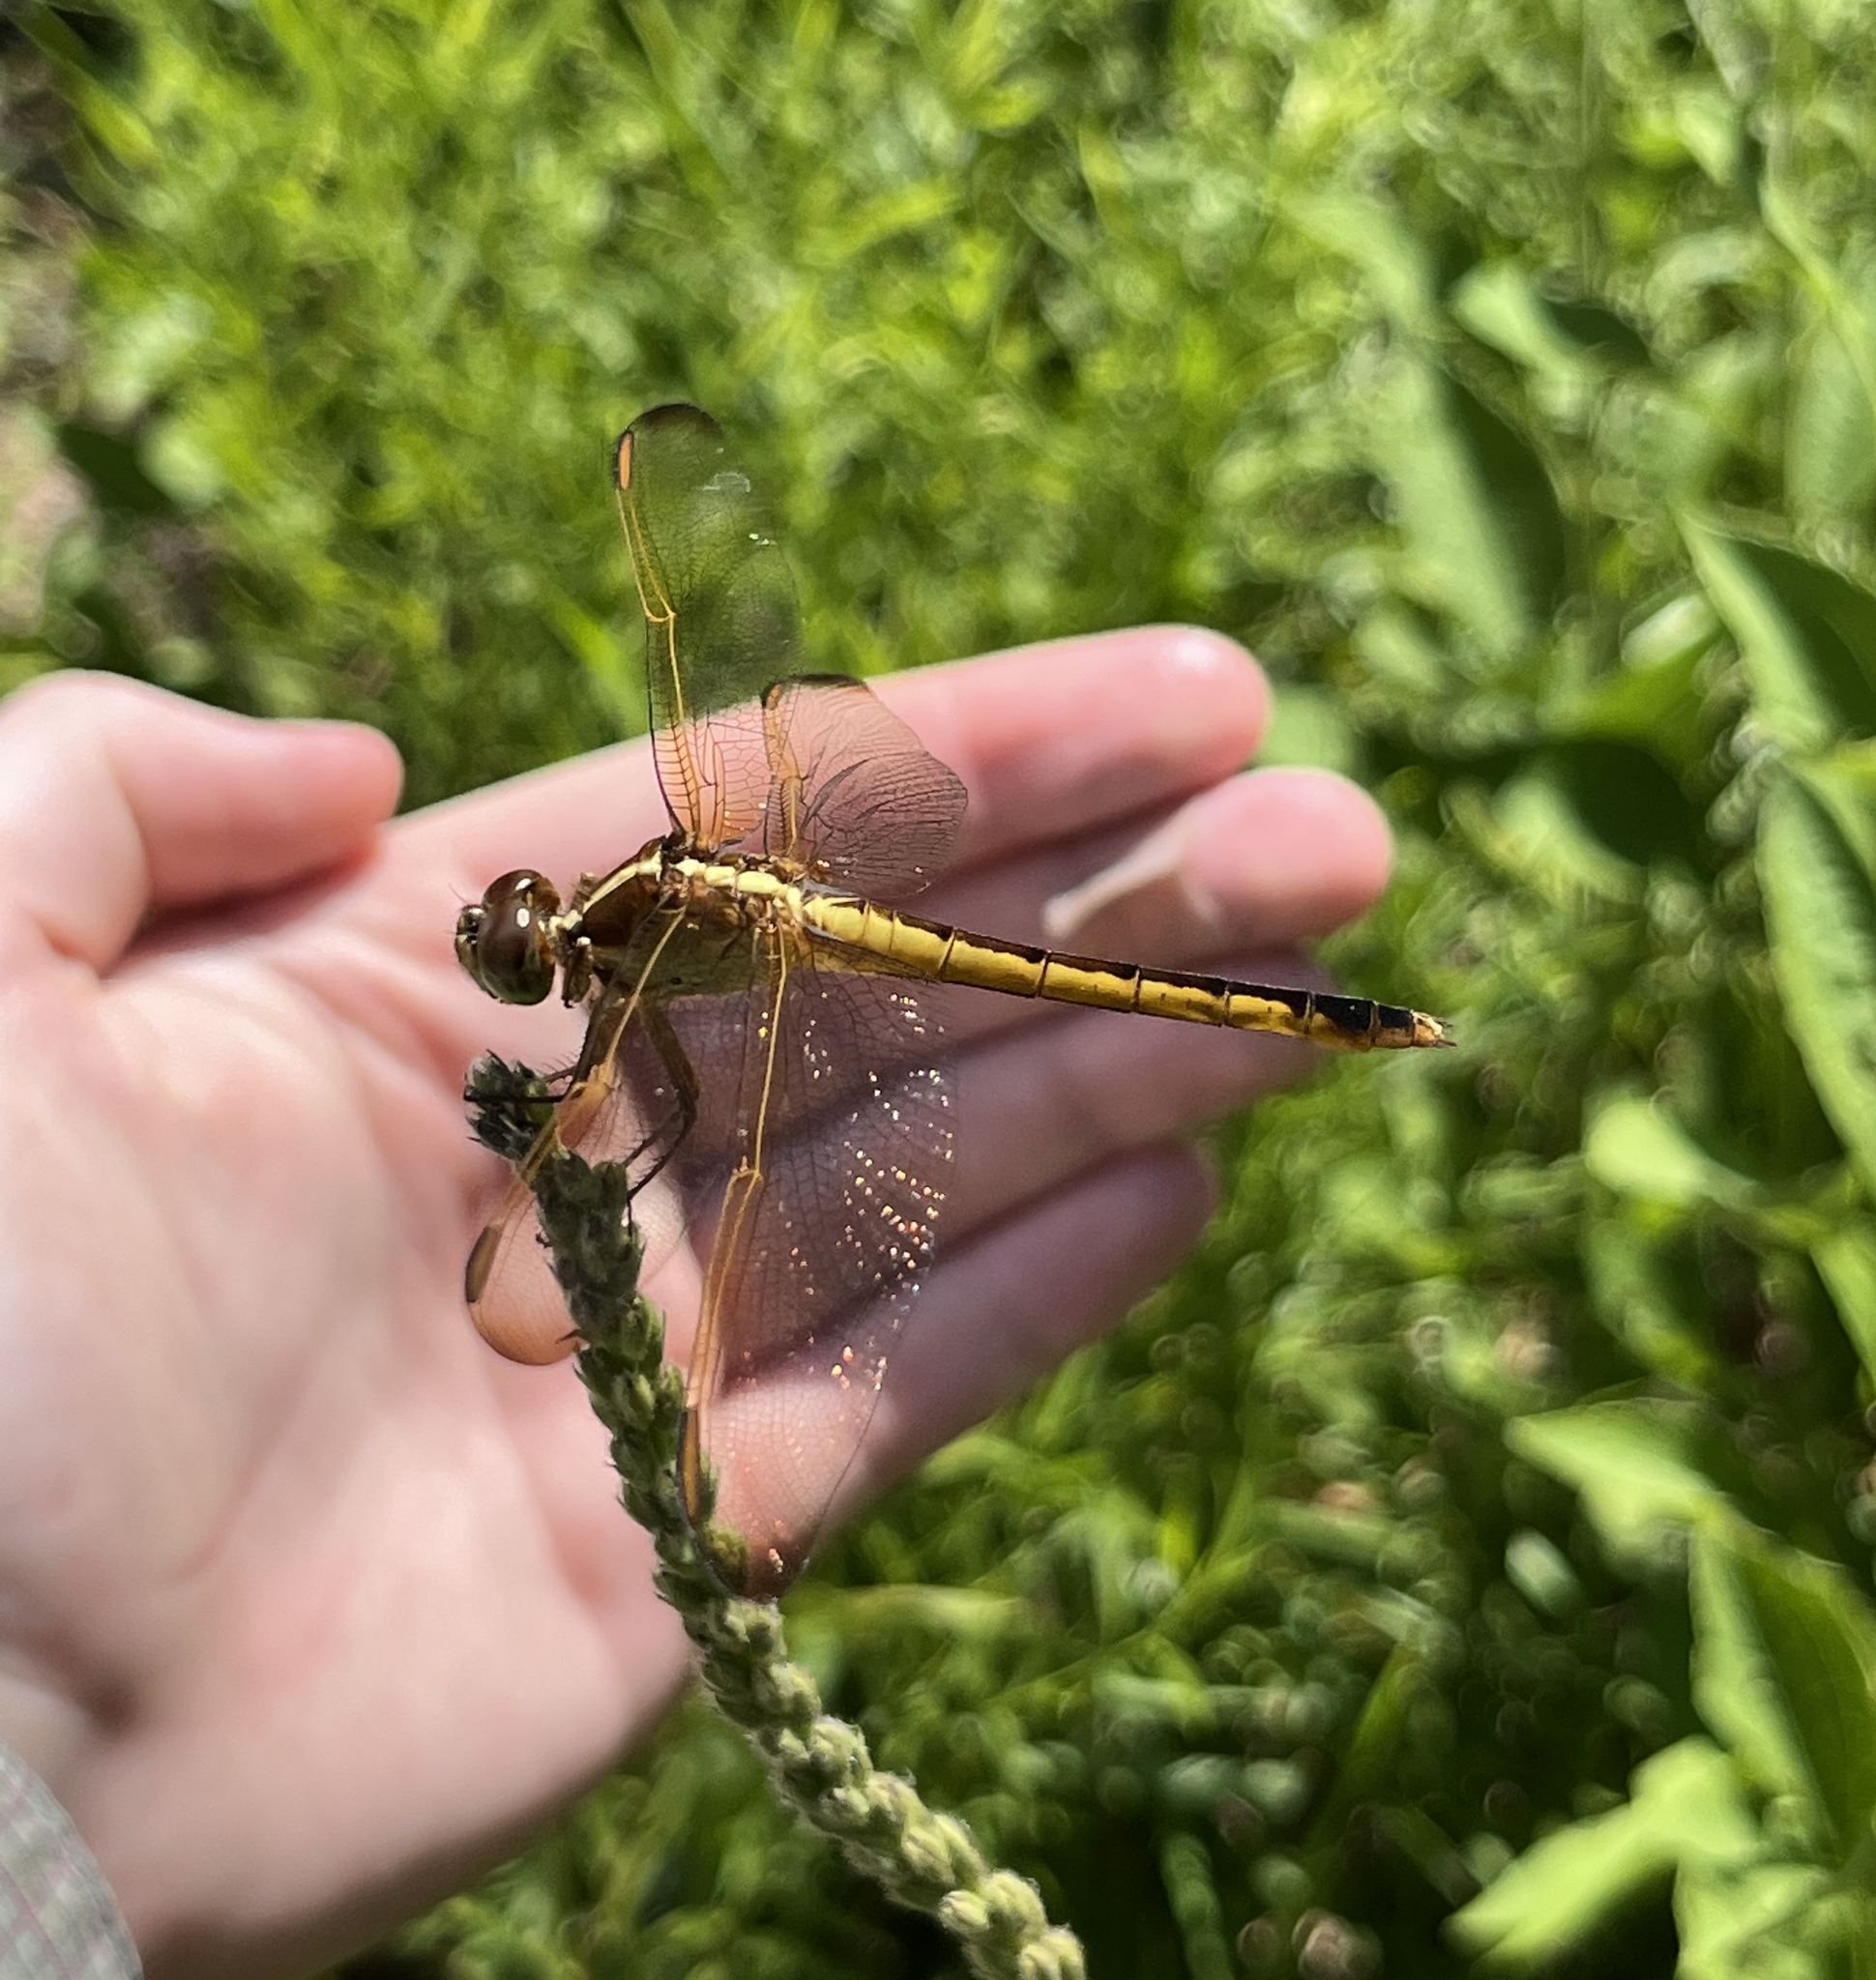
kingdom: Animalia
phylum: Arthropoda
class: Insecta
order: Odonata
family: Libellulidae
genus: Libellula
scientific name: Libellula needhami
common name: Needham's skimmer
